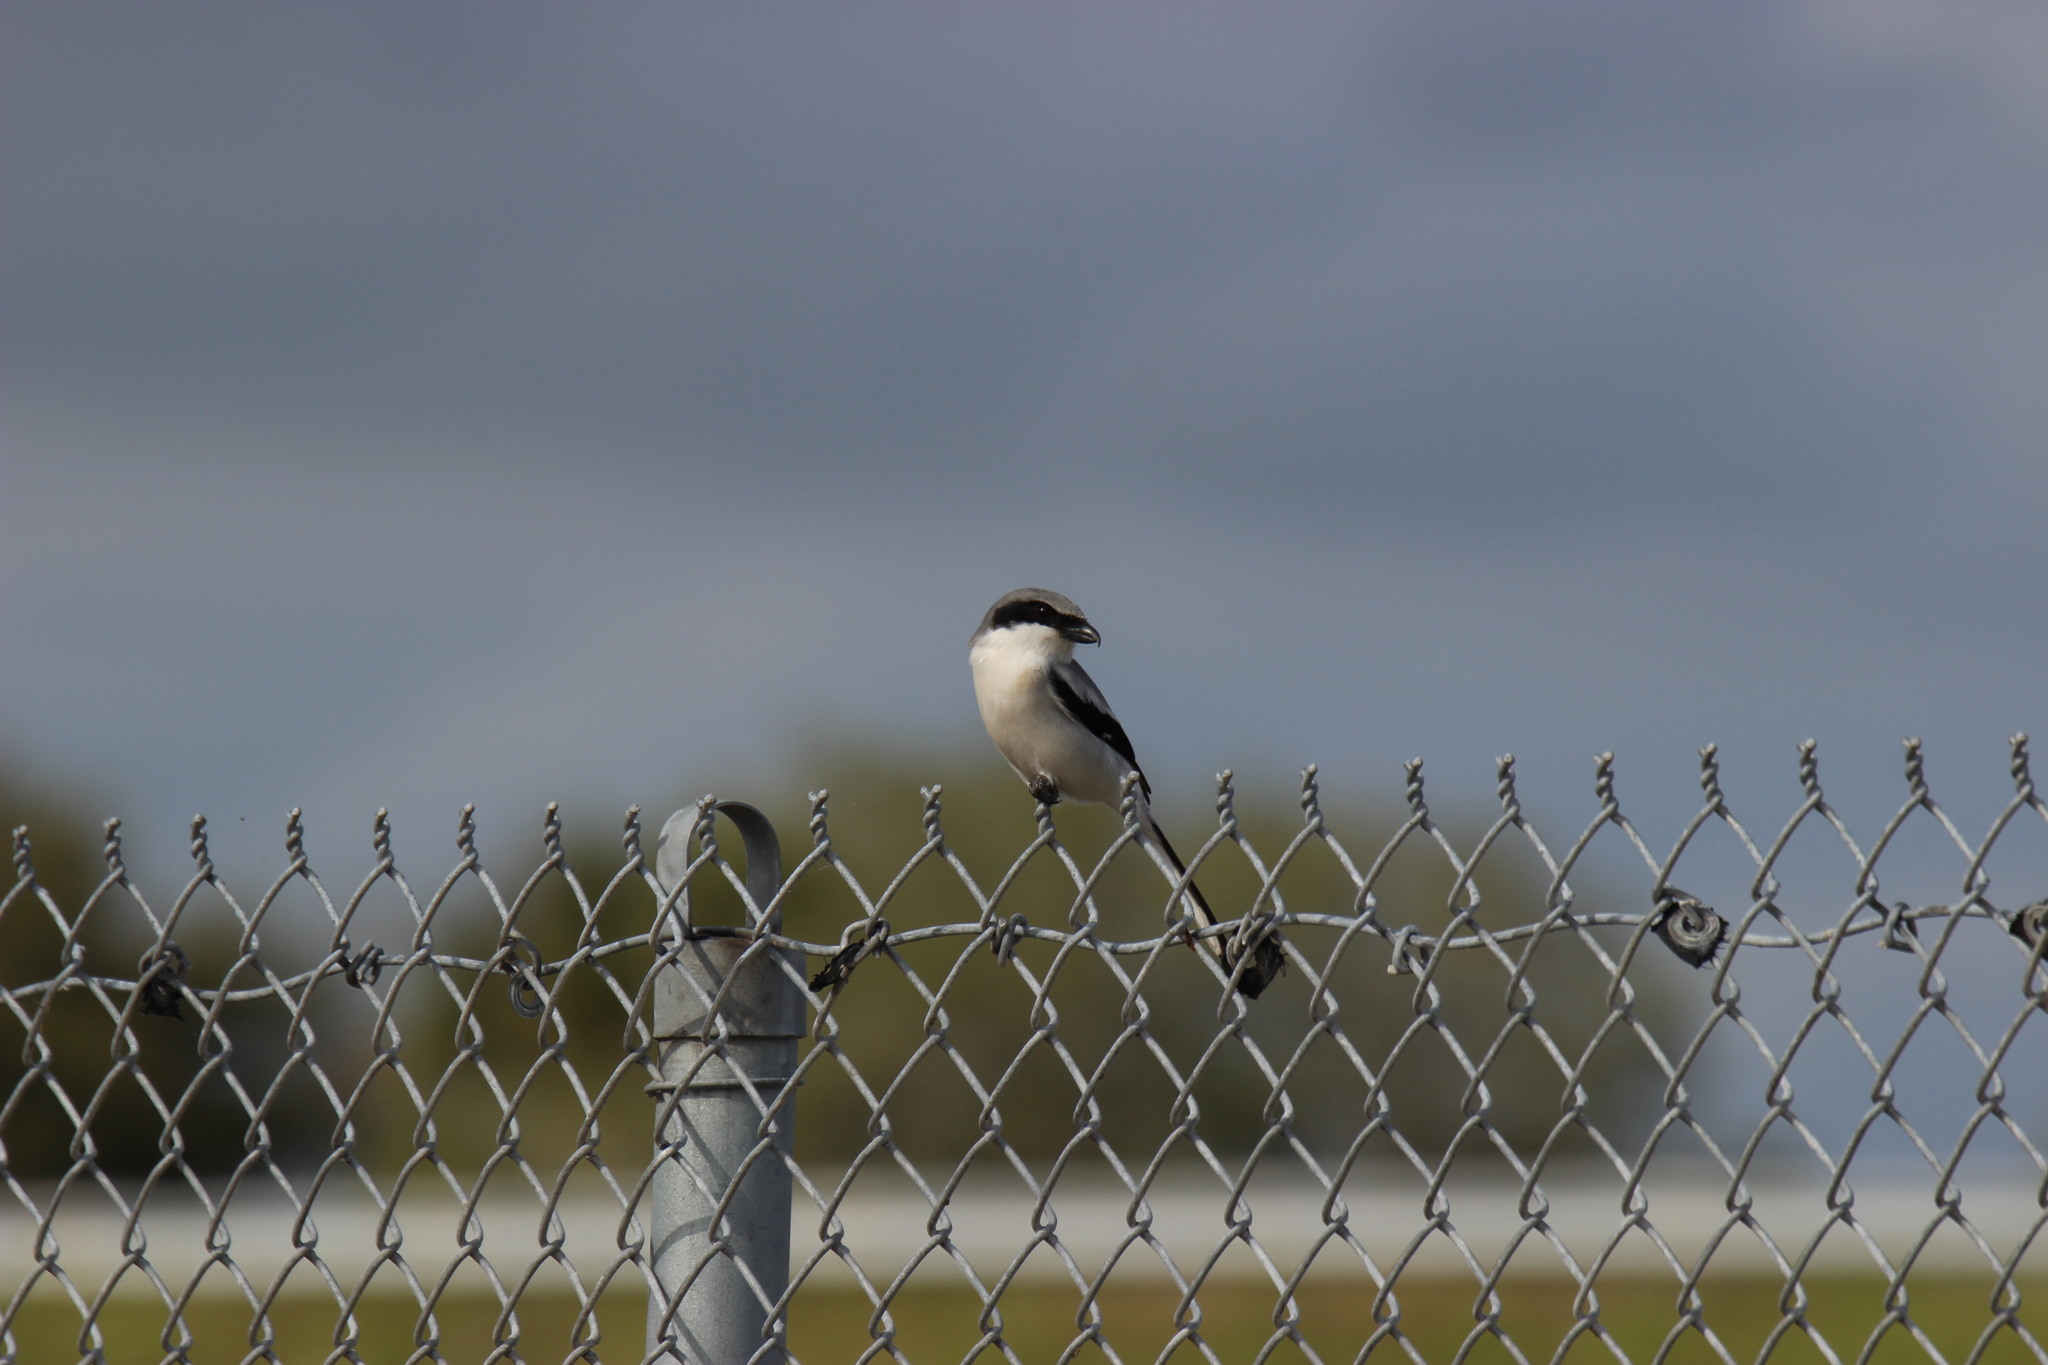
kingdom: Animalia
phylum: Chordata
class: Aves
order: Passeriformes
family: Laniidae
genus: Lanius
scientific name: Lanius ludovicianus
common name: Loggerhead shrike
